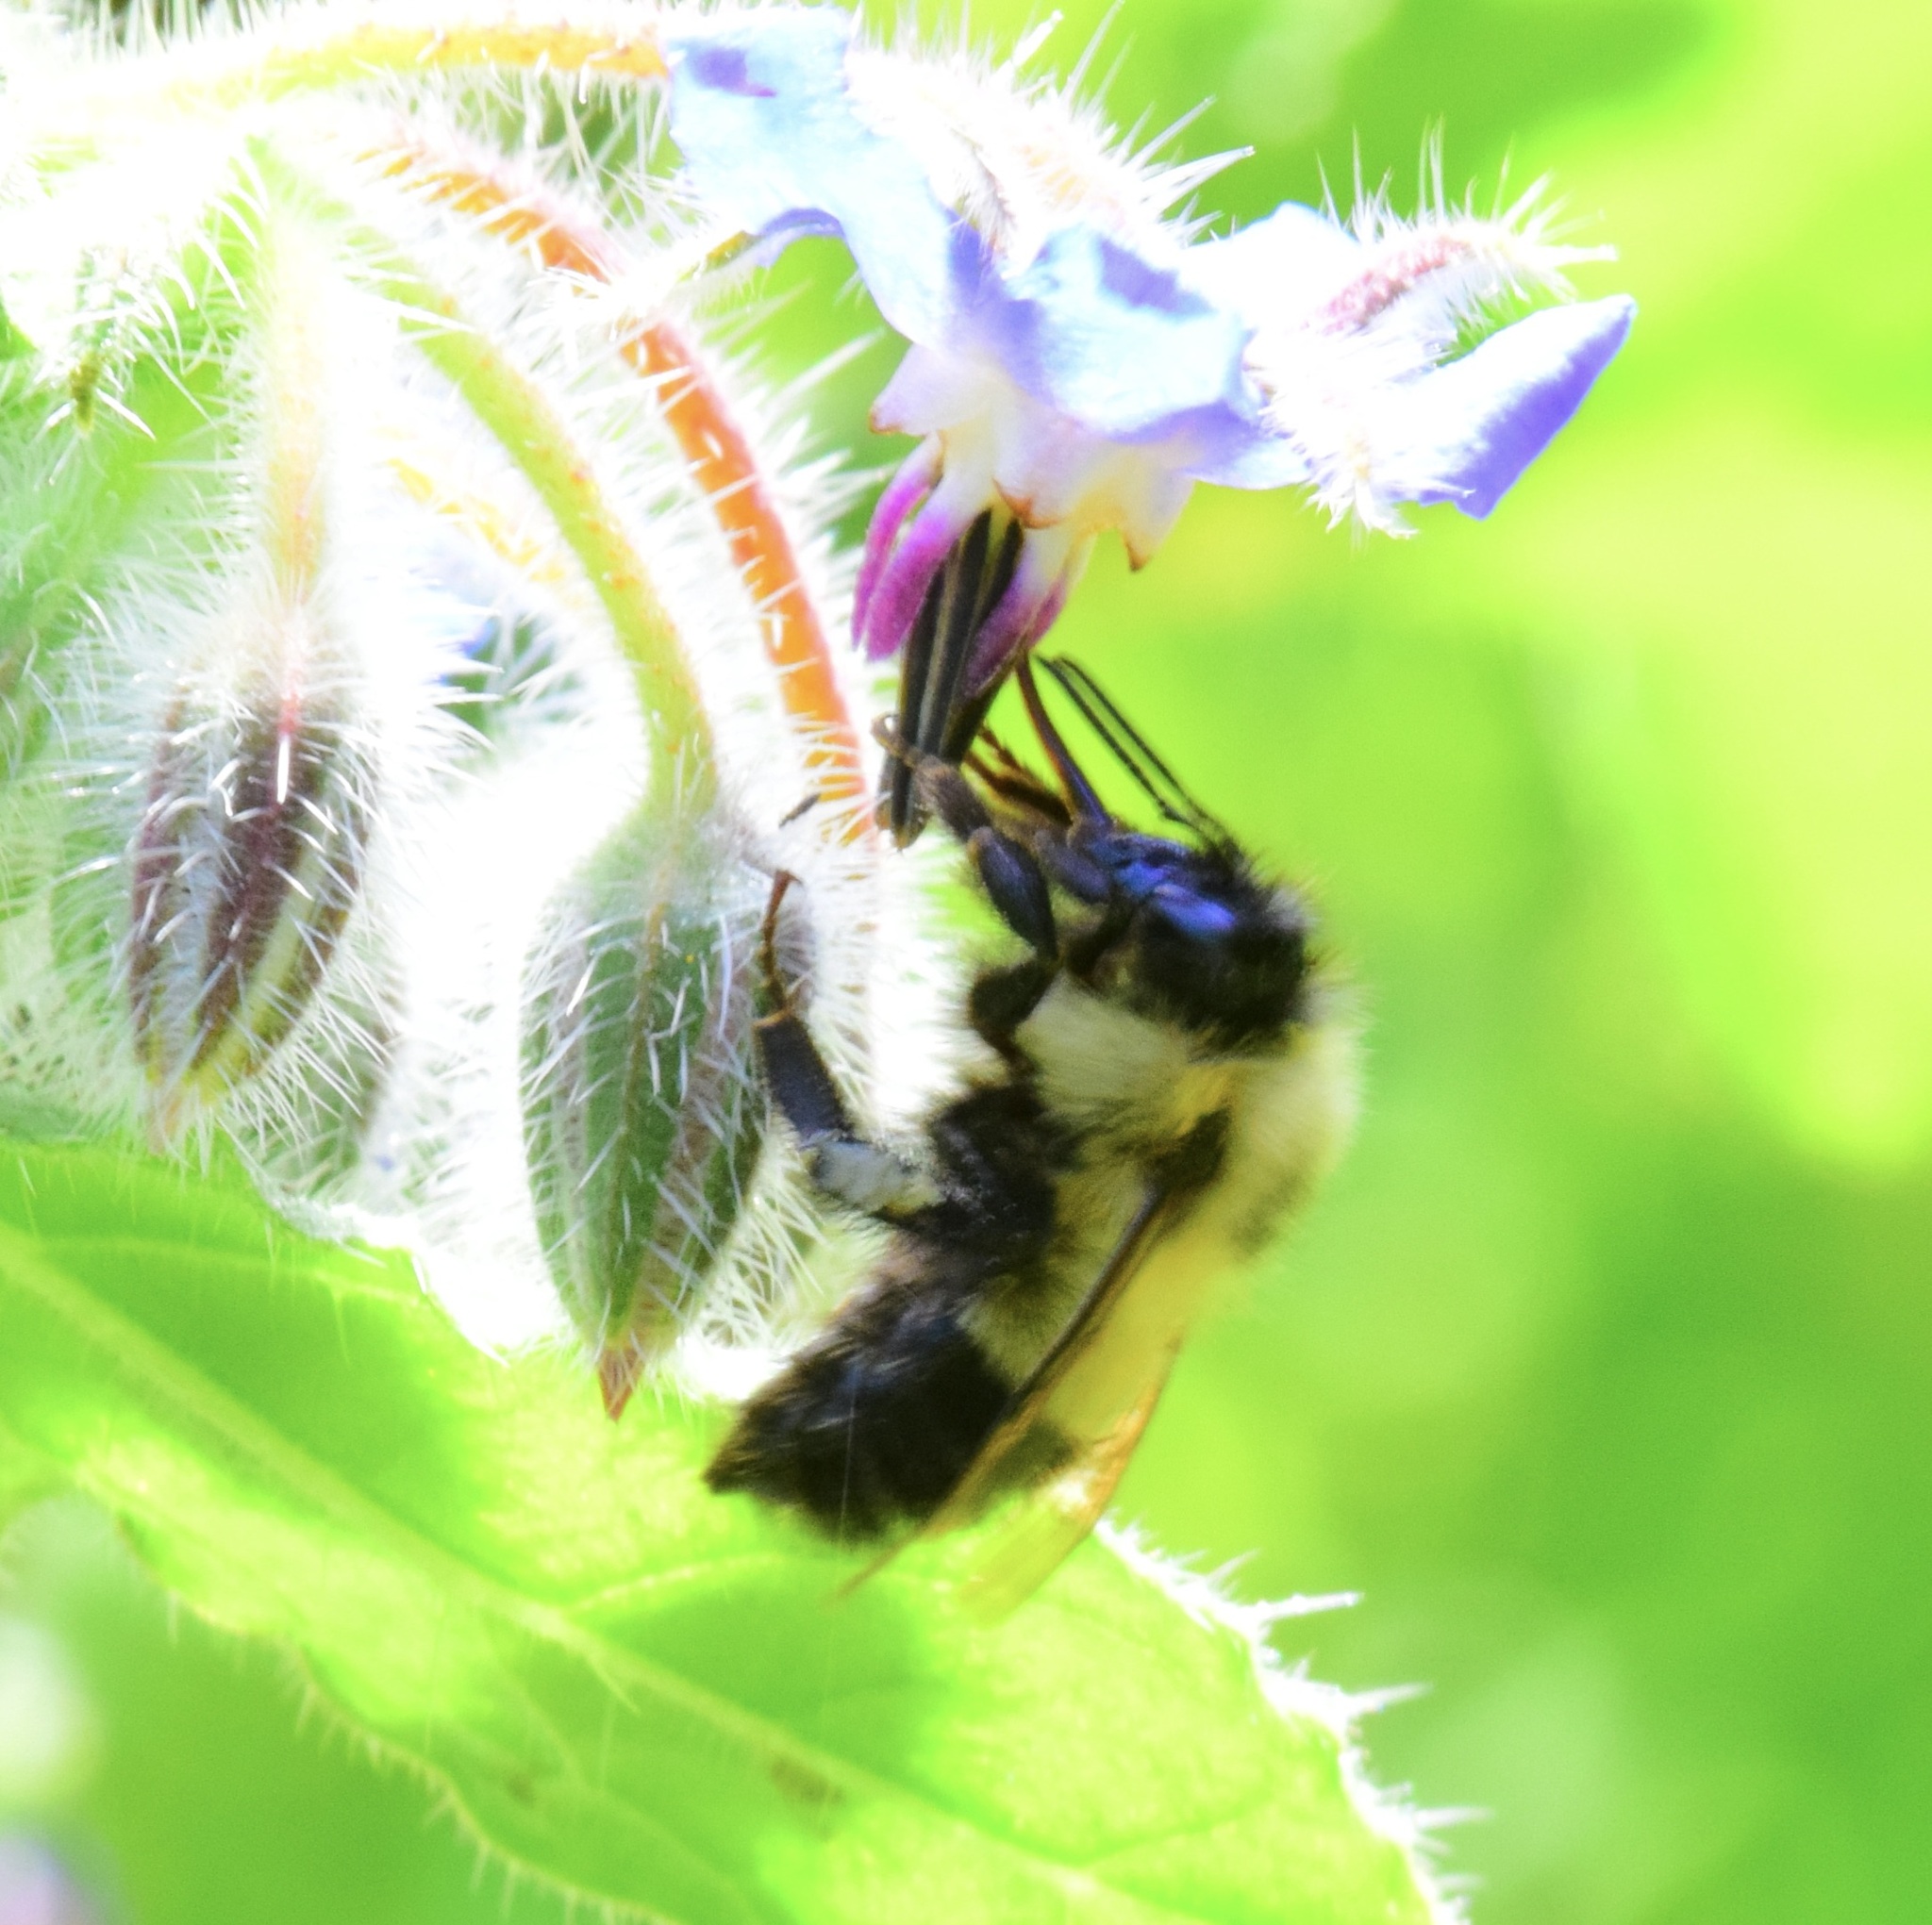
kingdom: Animalia
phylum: Arthropoda
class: Insecta
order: Hymenoptera
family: Apidae
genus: Bombus
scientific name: Bombus vagans
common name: Half-black bumble bee
